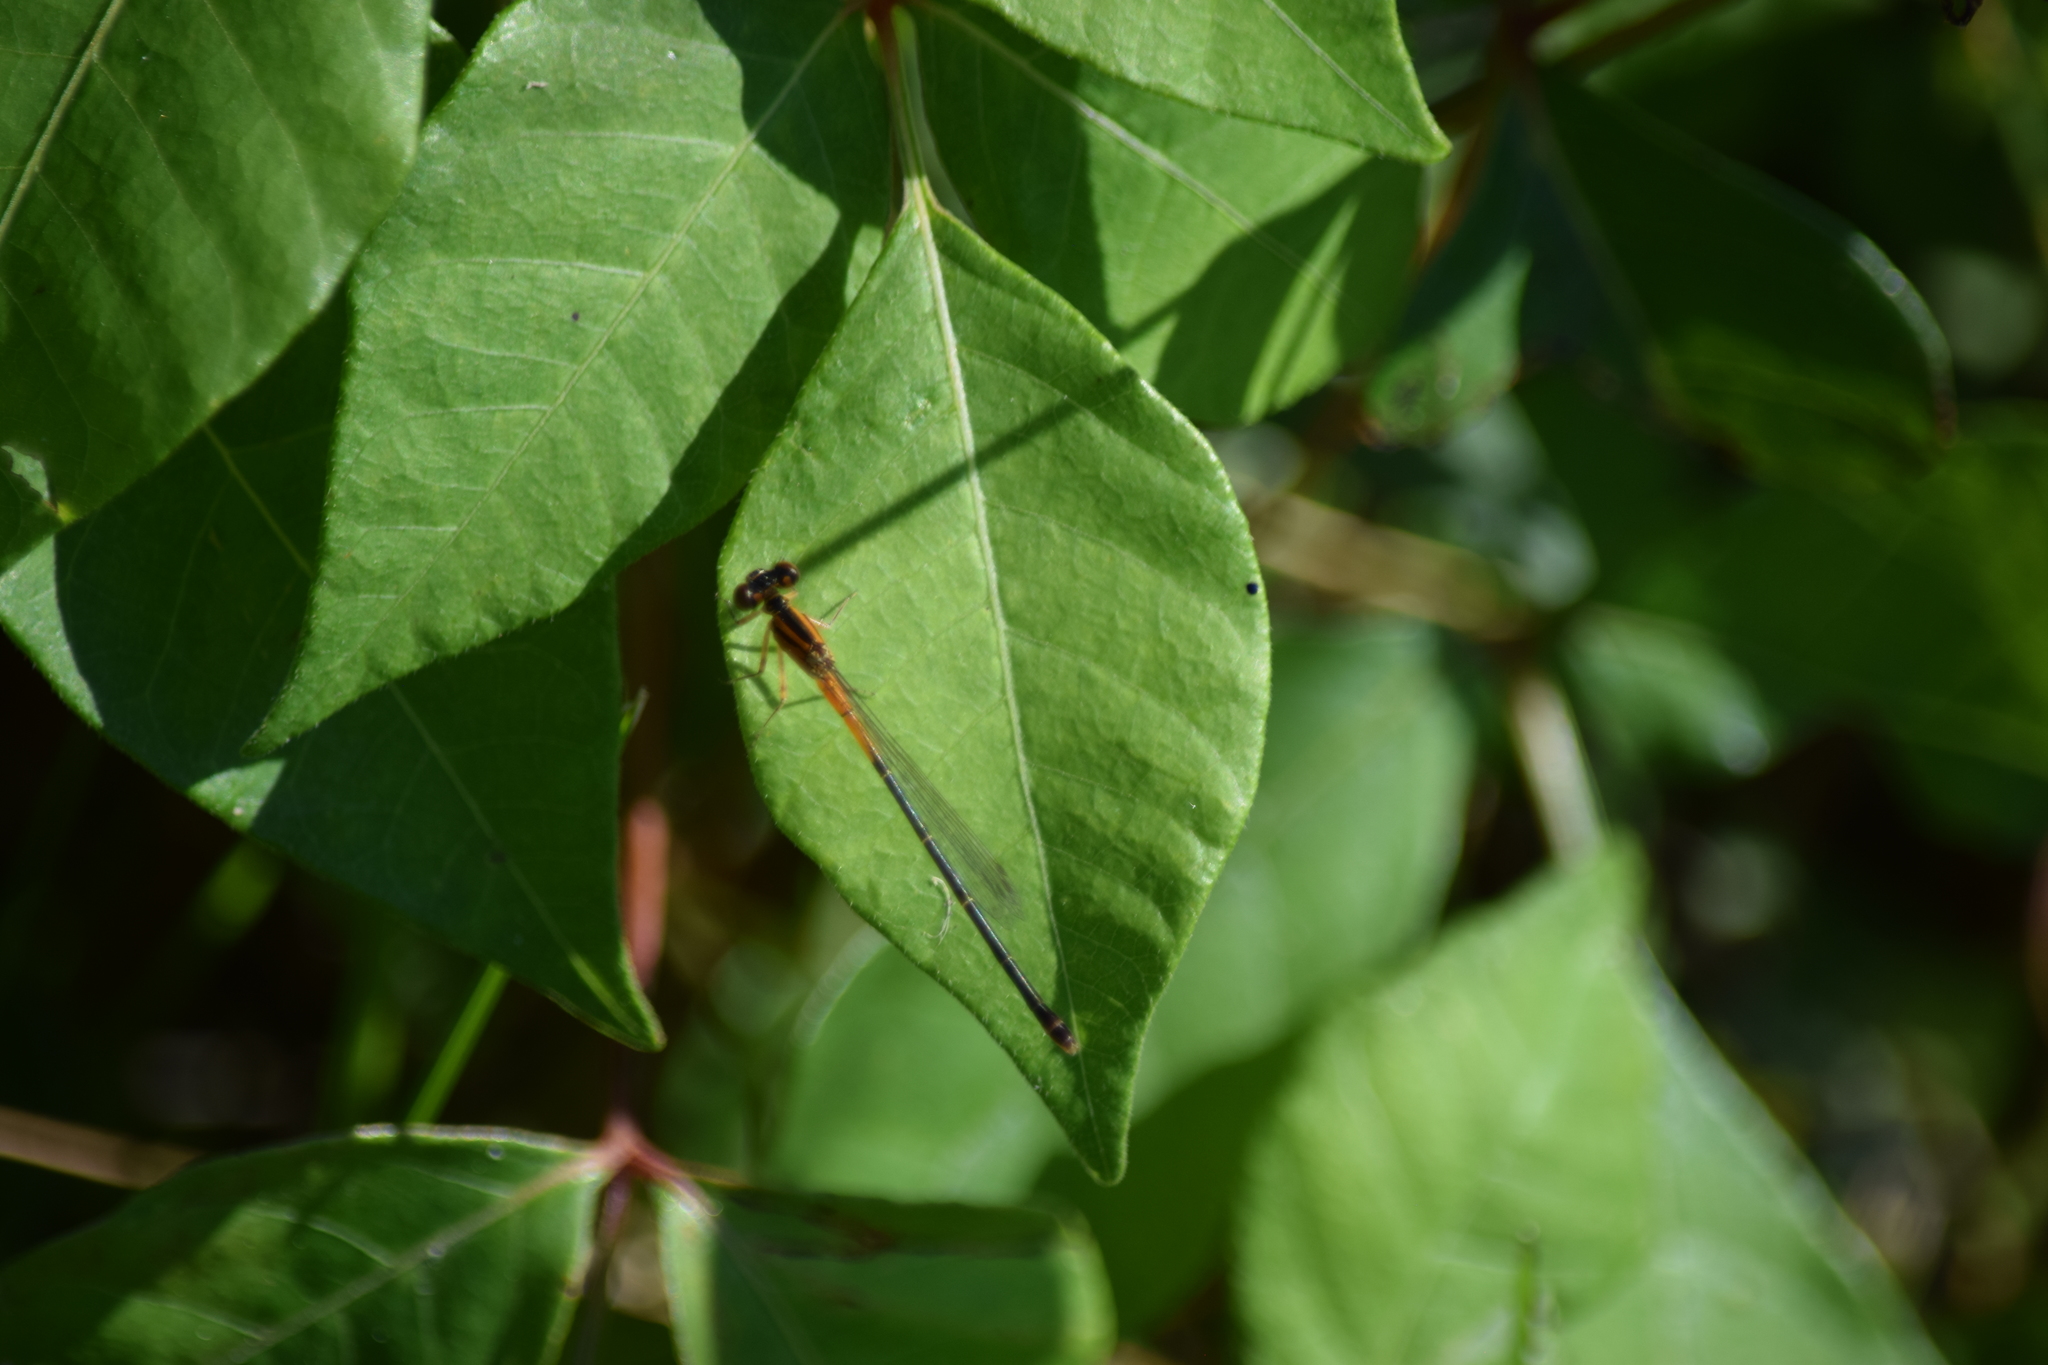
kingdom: Animalia
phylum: Arthropoda
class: Insecta
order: Odonata
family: Coenagrionidae
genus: Ischnura
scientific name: Ischnura verticalis
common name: Eastern forktail
